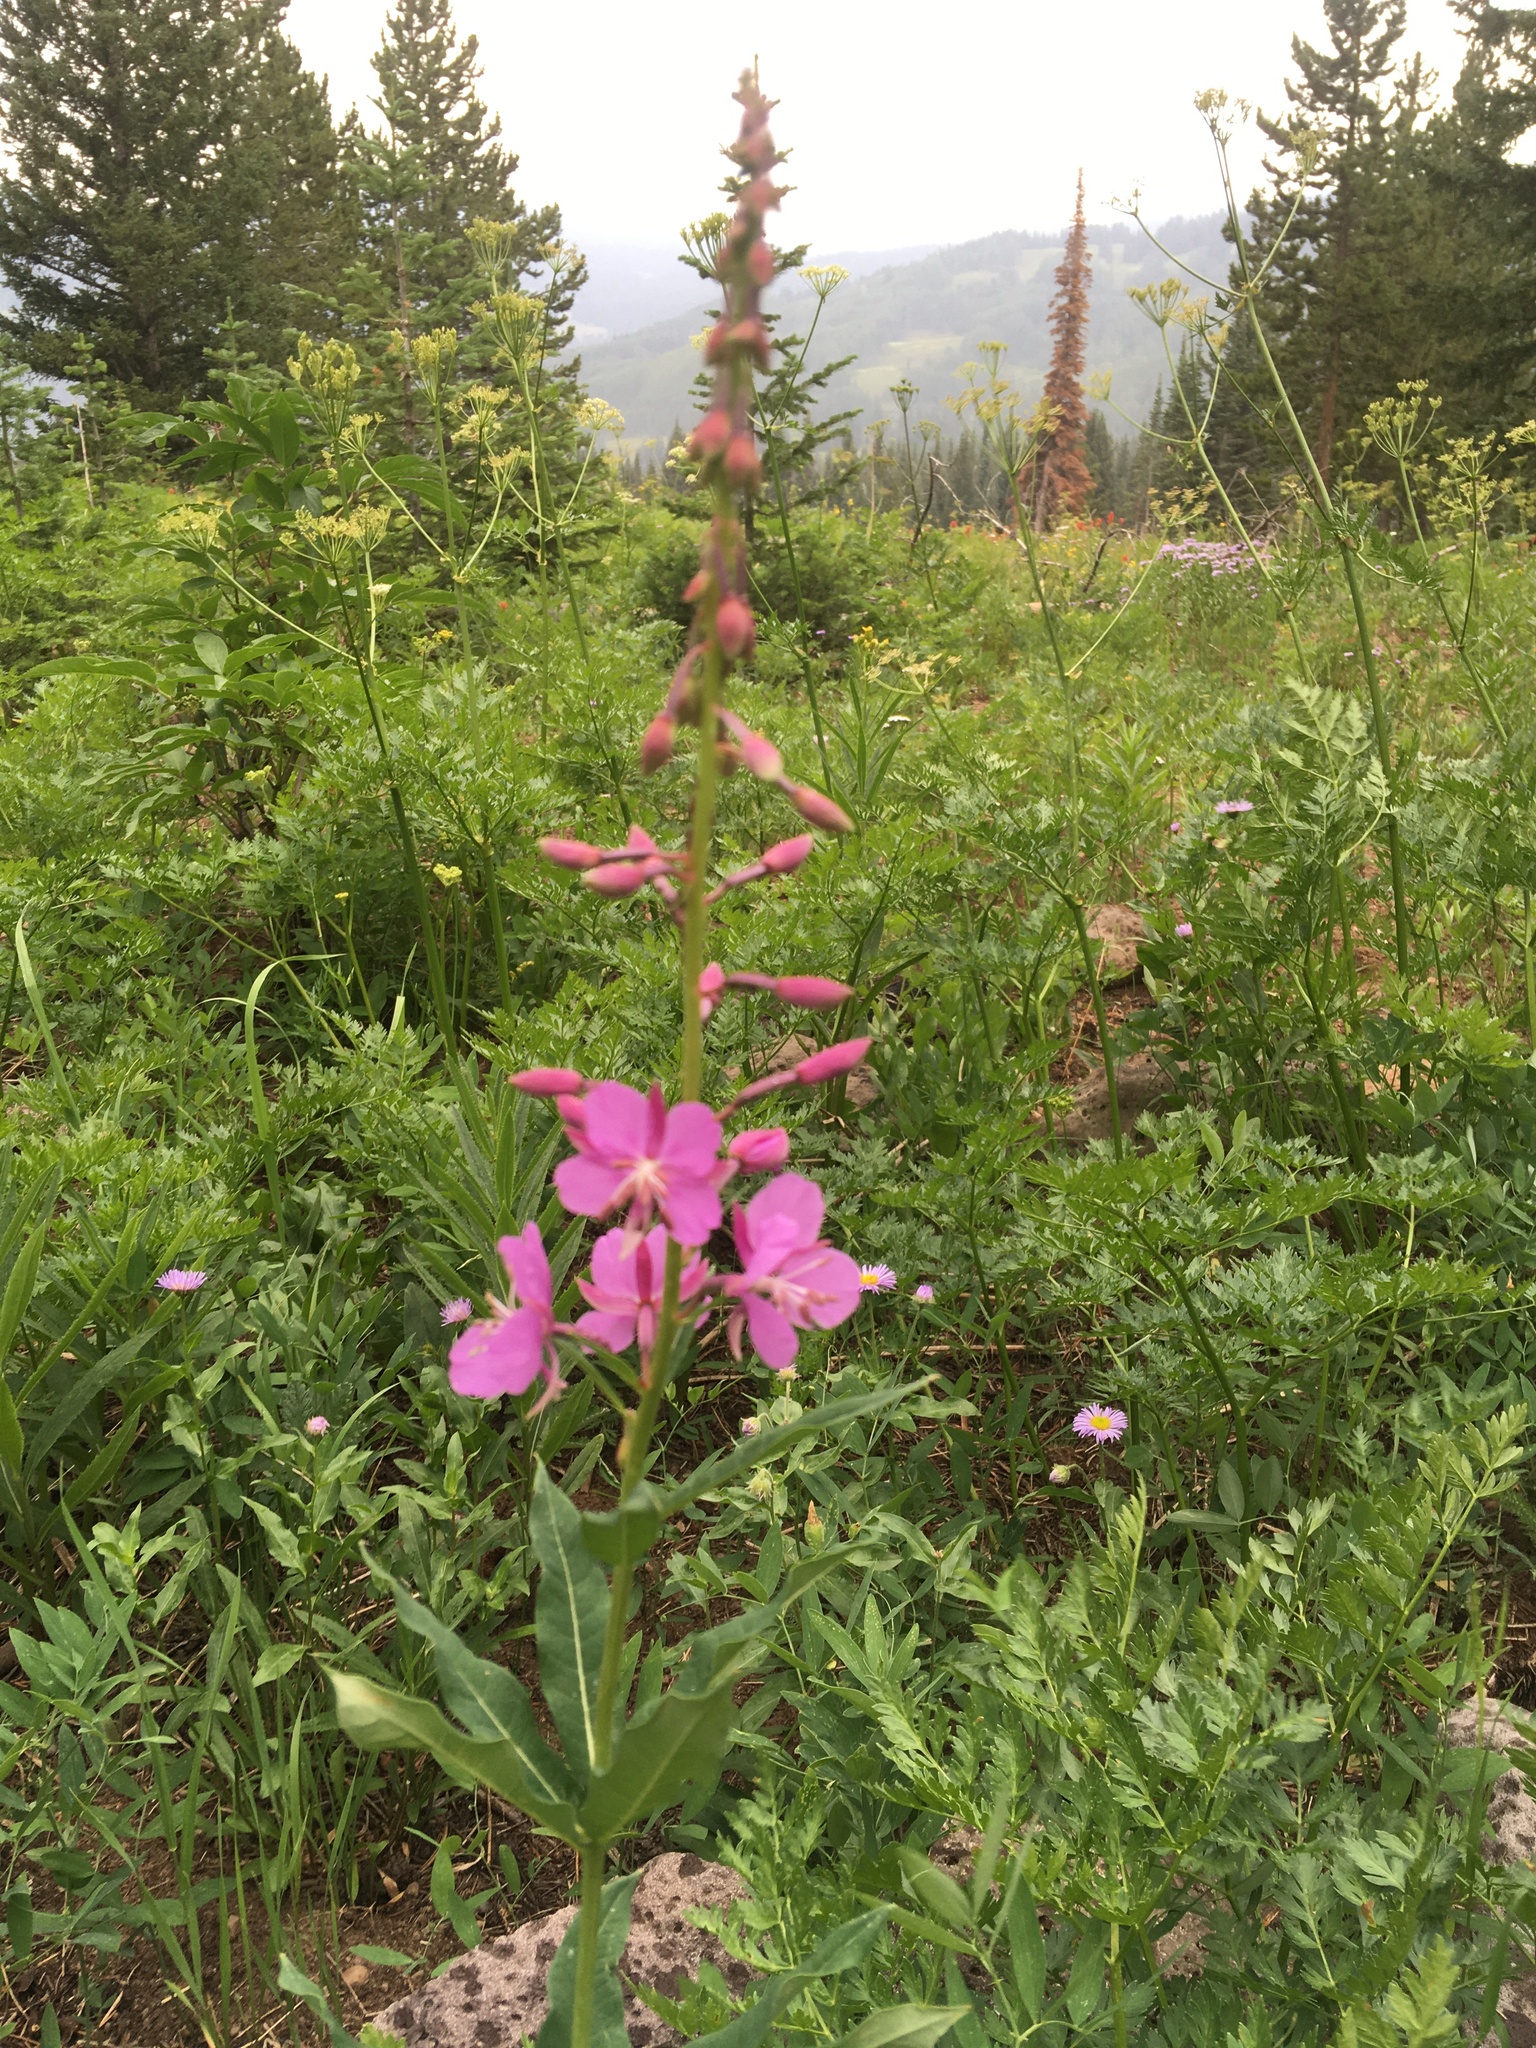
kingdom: Plantae
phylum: Tracheophyta
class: Magnoliopsida
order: Myrtales
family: Onagraceae
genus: Chamaenerion
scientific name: Chamaenerion angustifolium
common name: Fireweed
